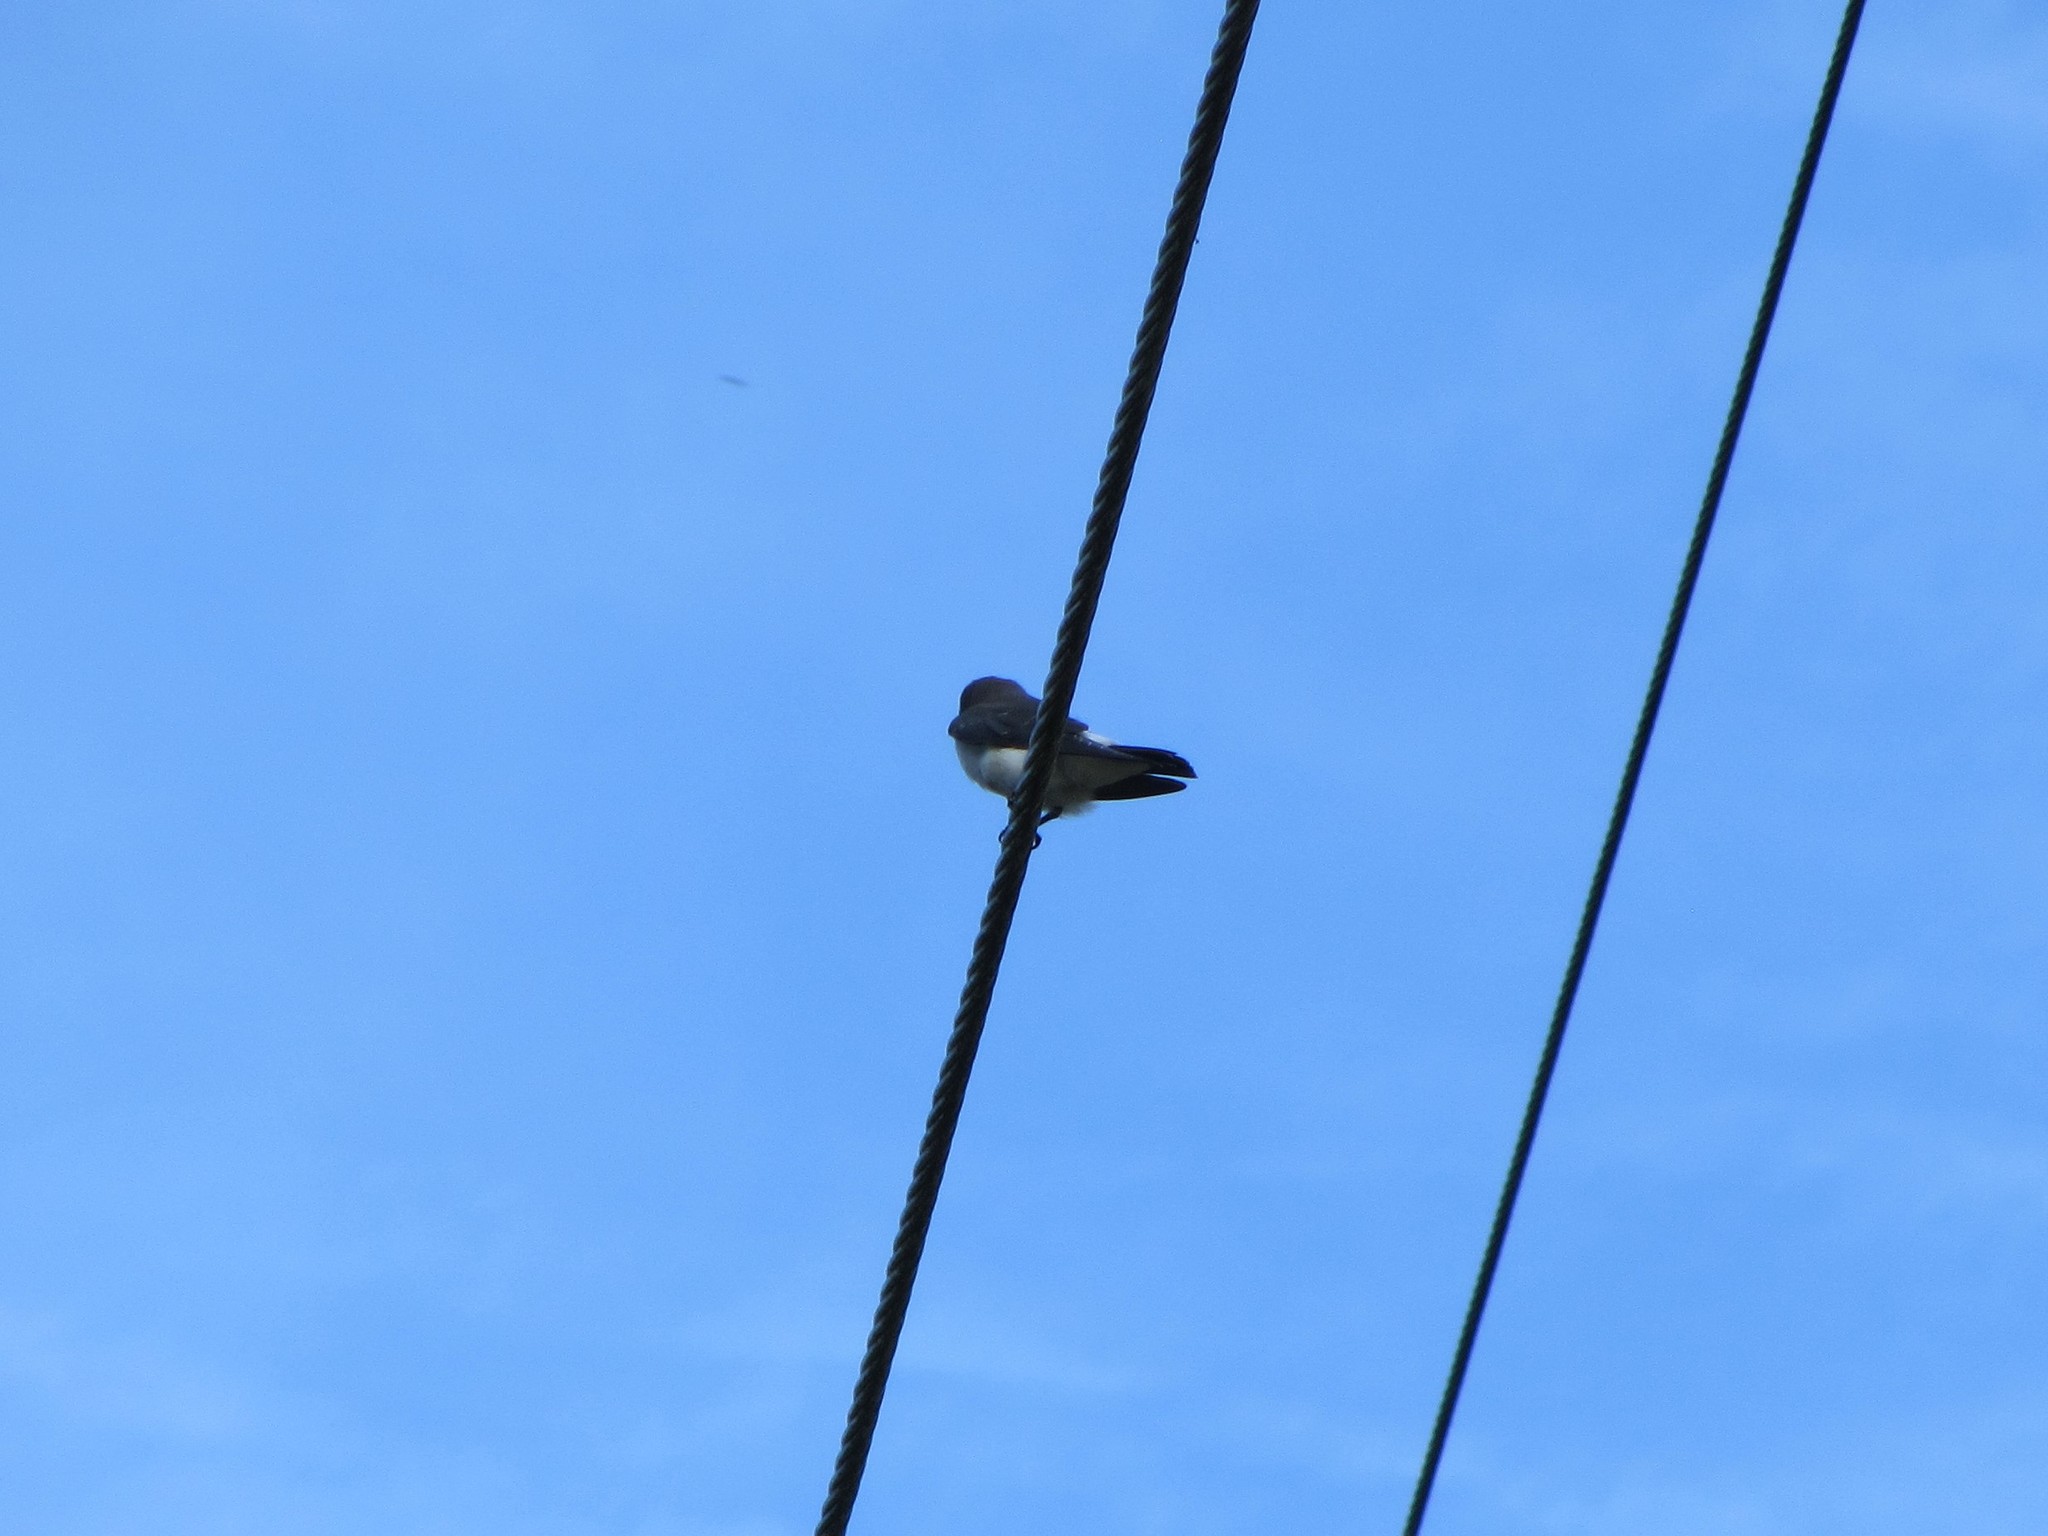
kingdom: Animalia
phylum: Chordata
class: Aves
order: Passeriformes
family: Artamidae
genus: Artamus
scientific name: Artamus leucoryn
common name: White-breasted woodswallow
